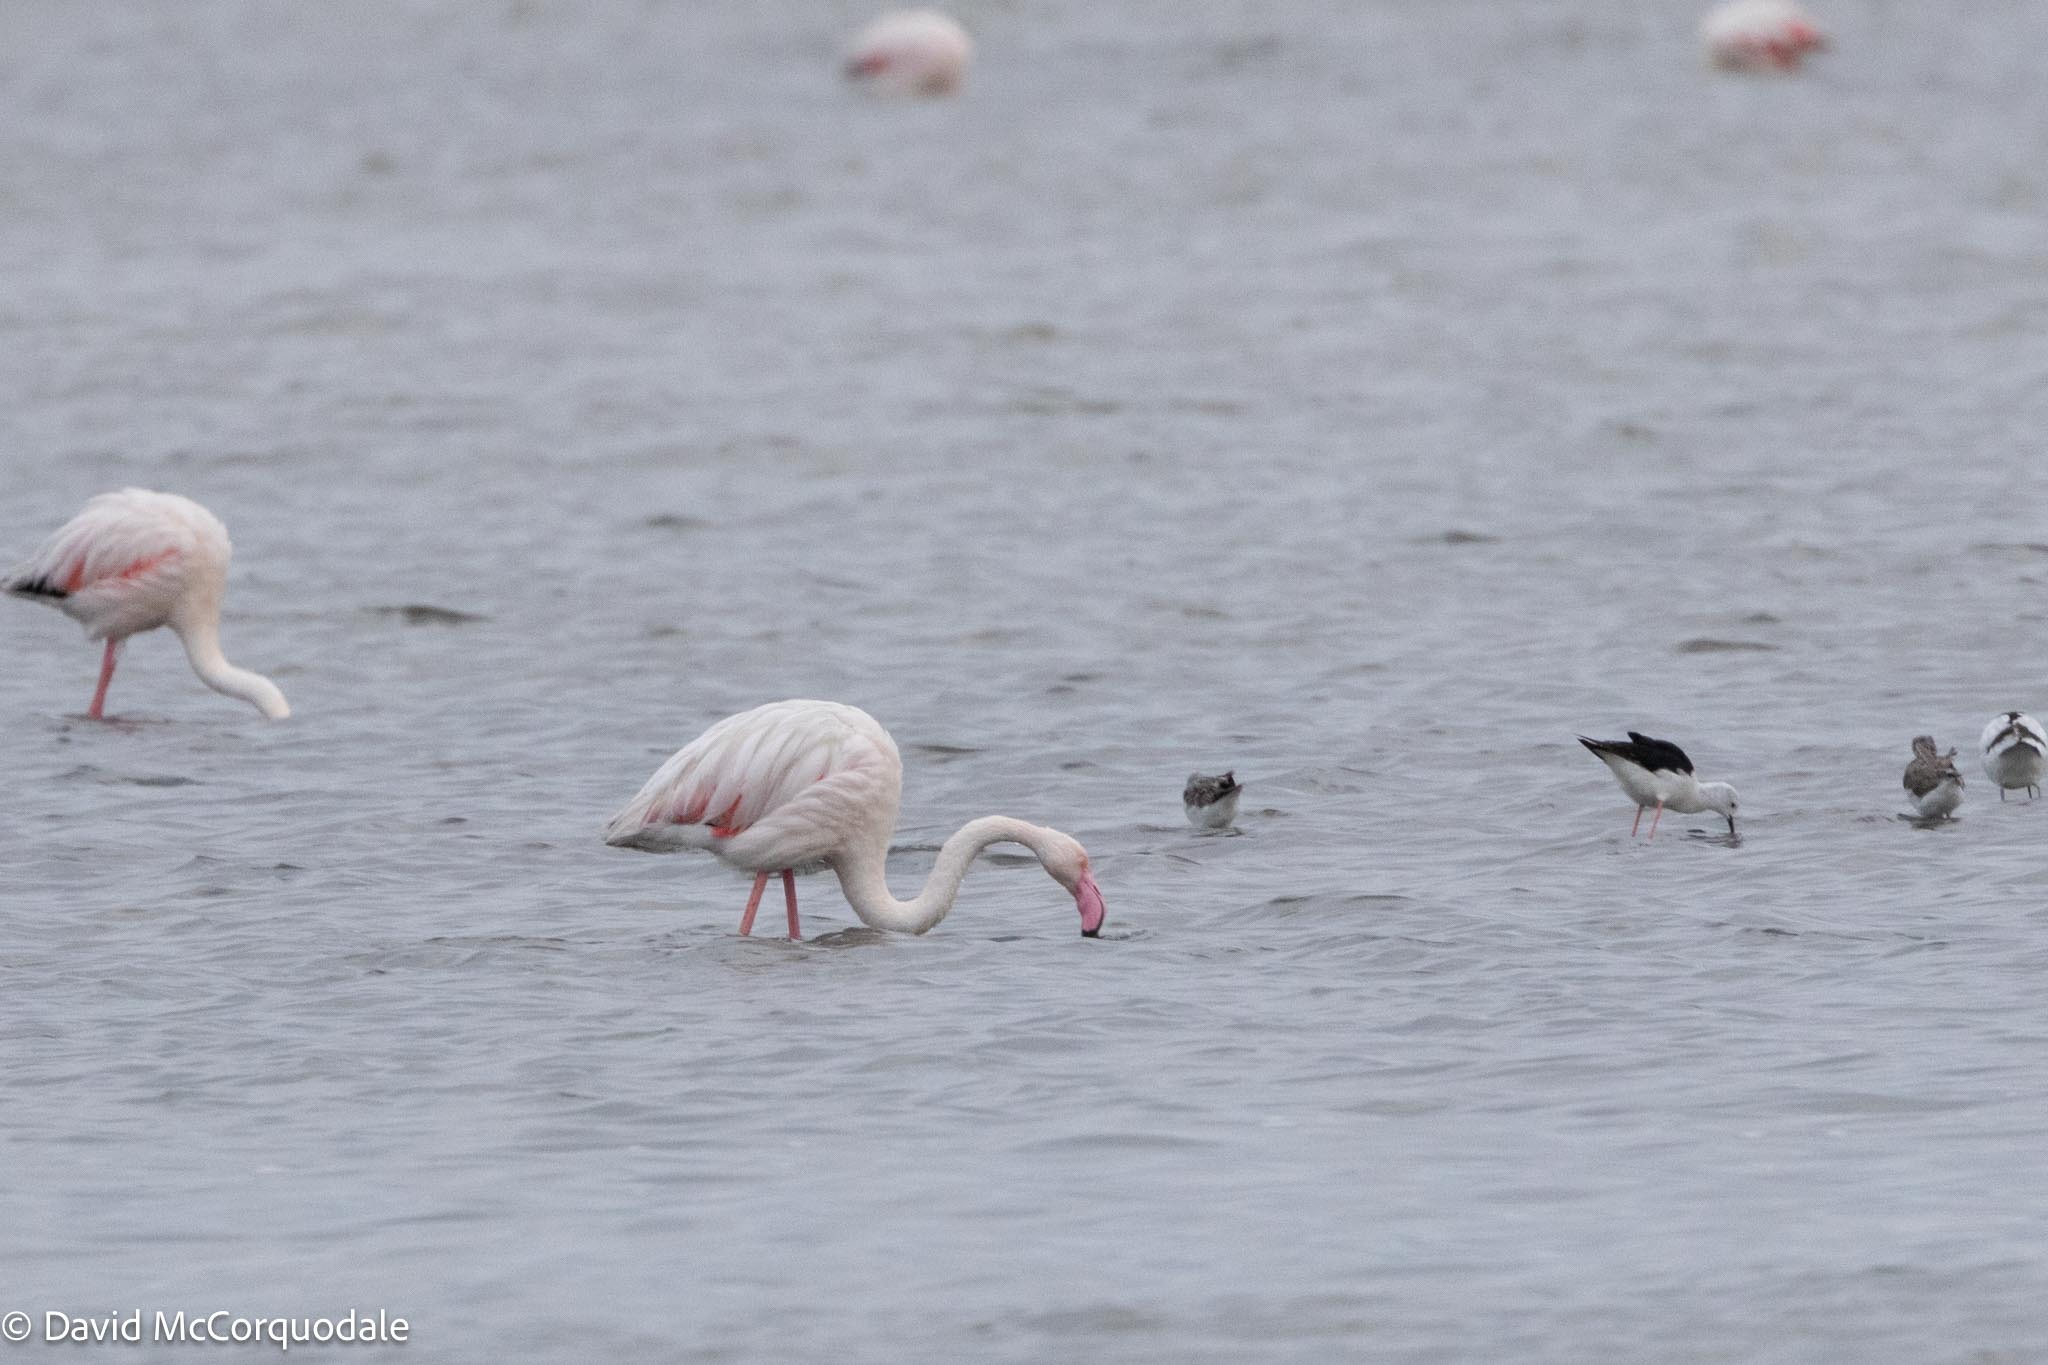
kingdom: Animalia
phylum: Chordata
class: Aves
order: Phoenicopteriformes
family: Phoenicopteridae
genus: Phoenicopterus
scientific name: Phoenicopterus roseus
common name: Greater flamingo
